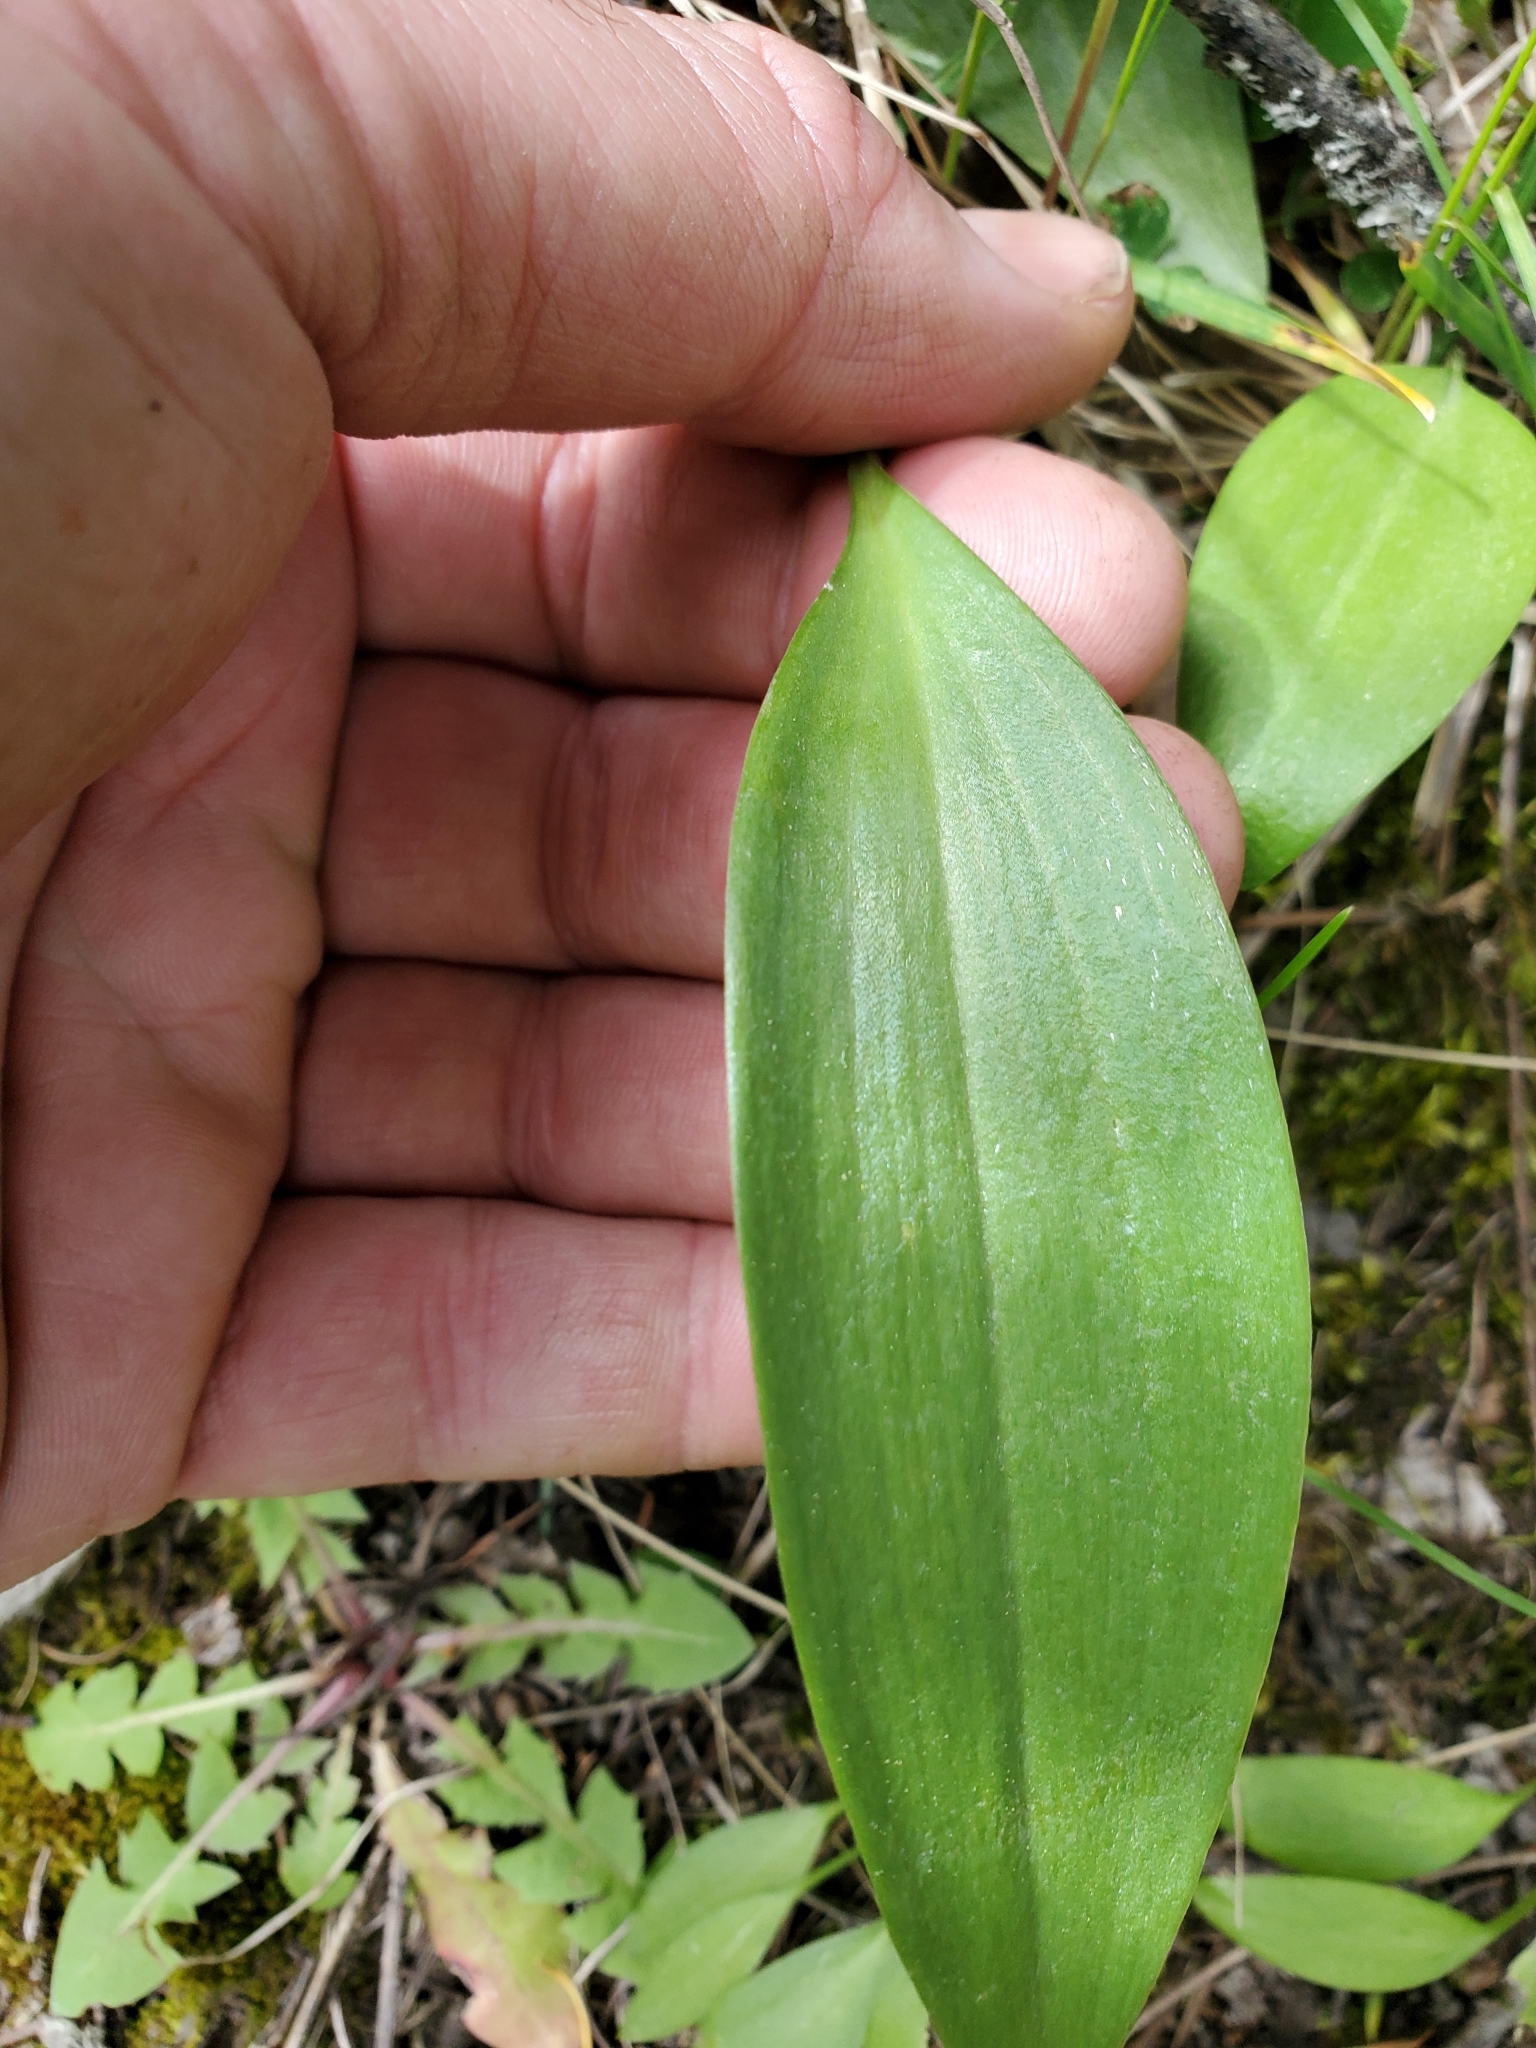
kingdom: Plantae
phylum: Tracheophyta
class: Liliopsida
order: Liliales
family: Liliaceae
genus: Fritillaria
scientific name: Fritillaria affinis
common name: Ojai fritillary
